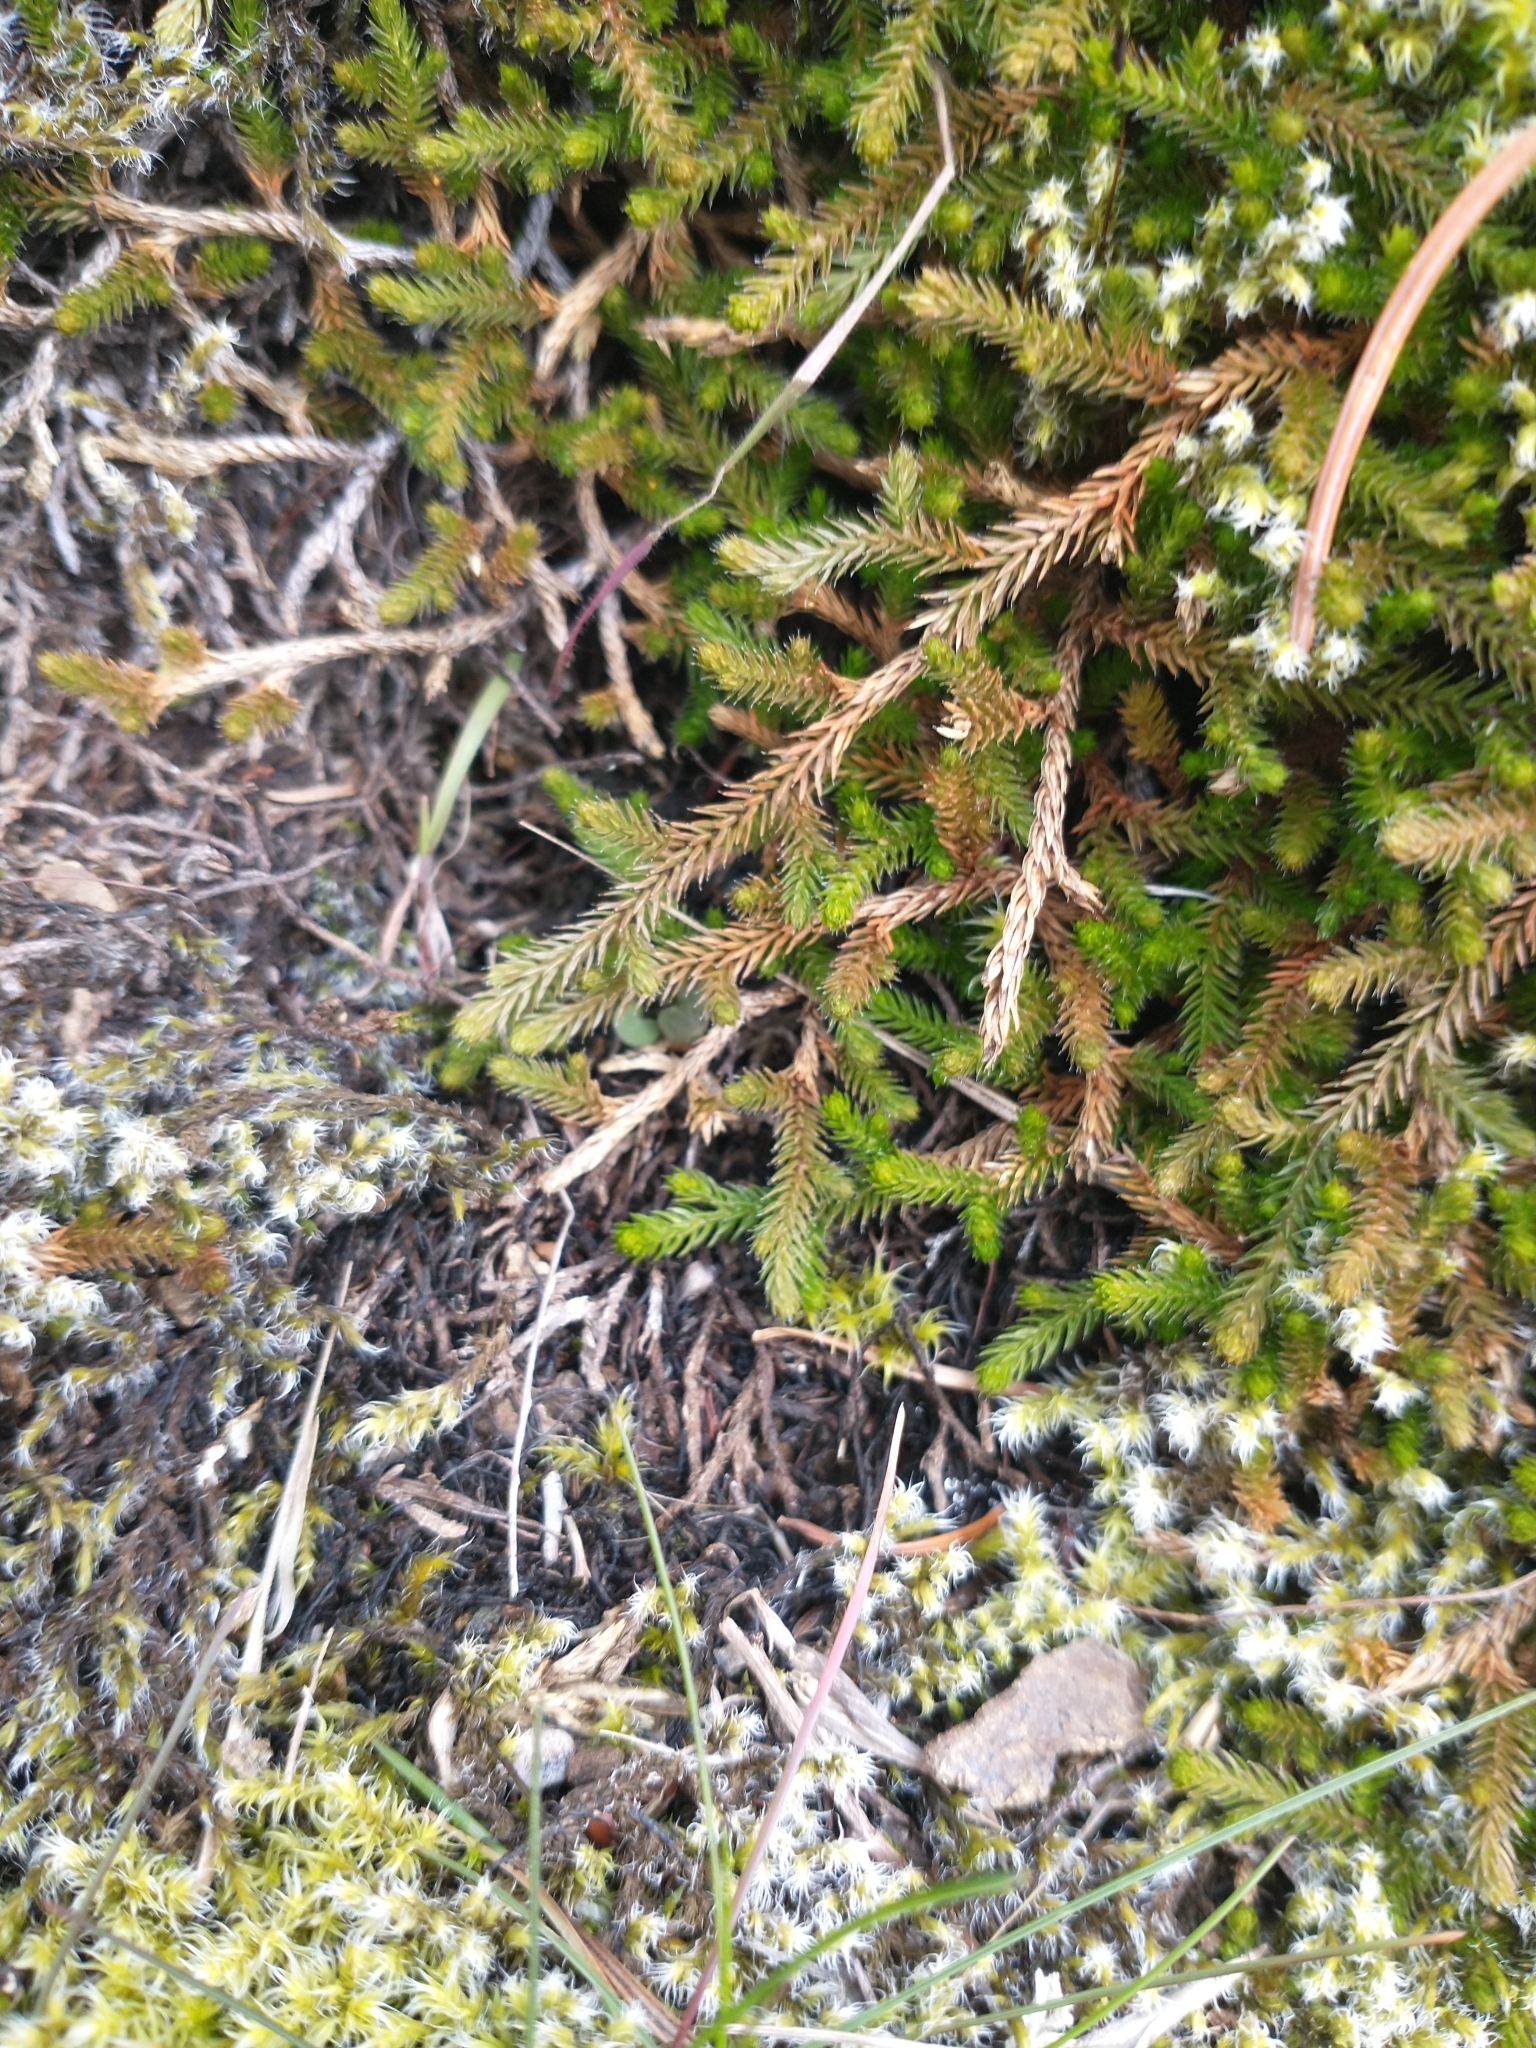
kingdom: Plantae
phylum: Tracheophyta
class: Lycopodiopsida
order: Selaginellales
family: Selaginellaceae
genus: Selaginella
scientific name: Selaginella wallacei
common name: Wallace's selaginella
